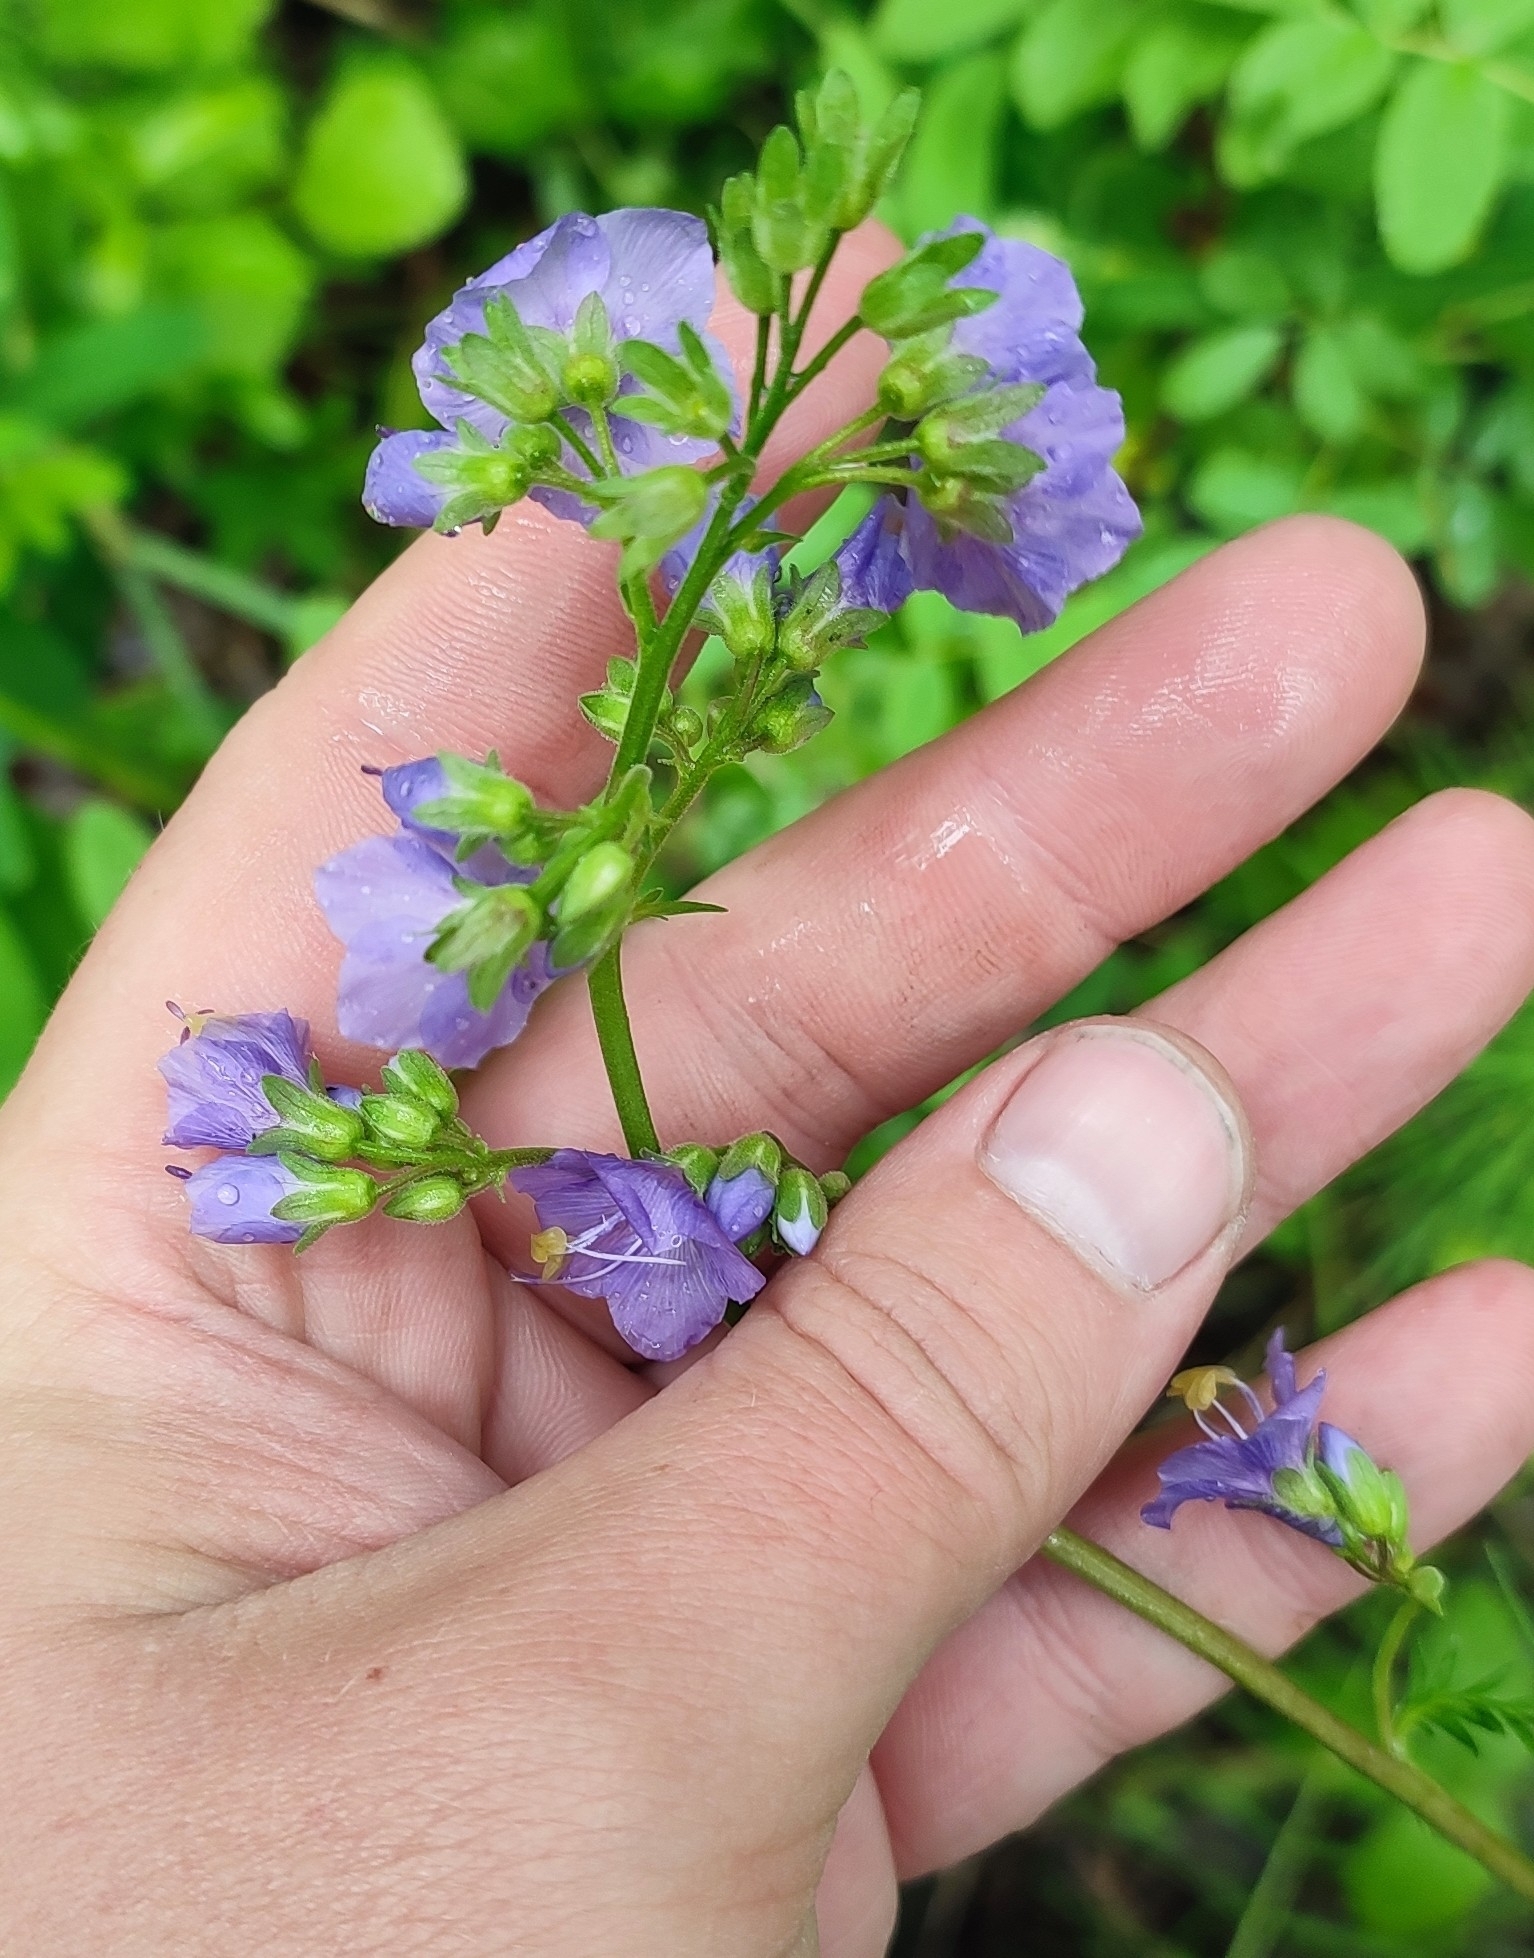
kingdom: Plantae
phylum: Tracheophyta
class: Magnoliopsida
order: Ericales
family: Polemoniaceae
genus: Polemonium
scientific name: Polemonium caeruleum
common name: Jacob's-ladder
